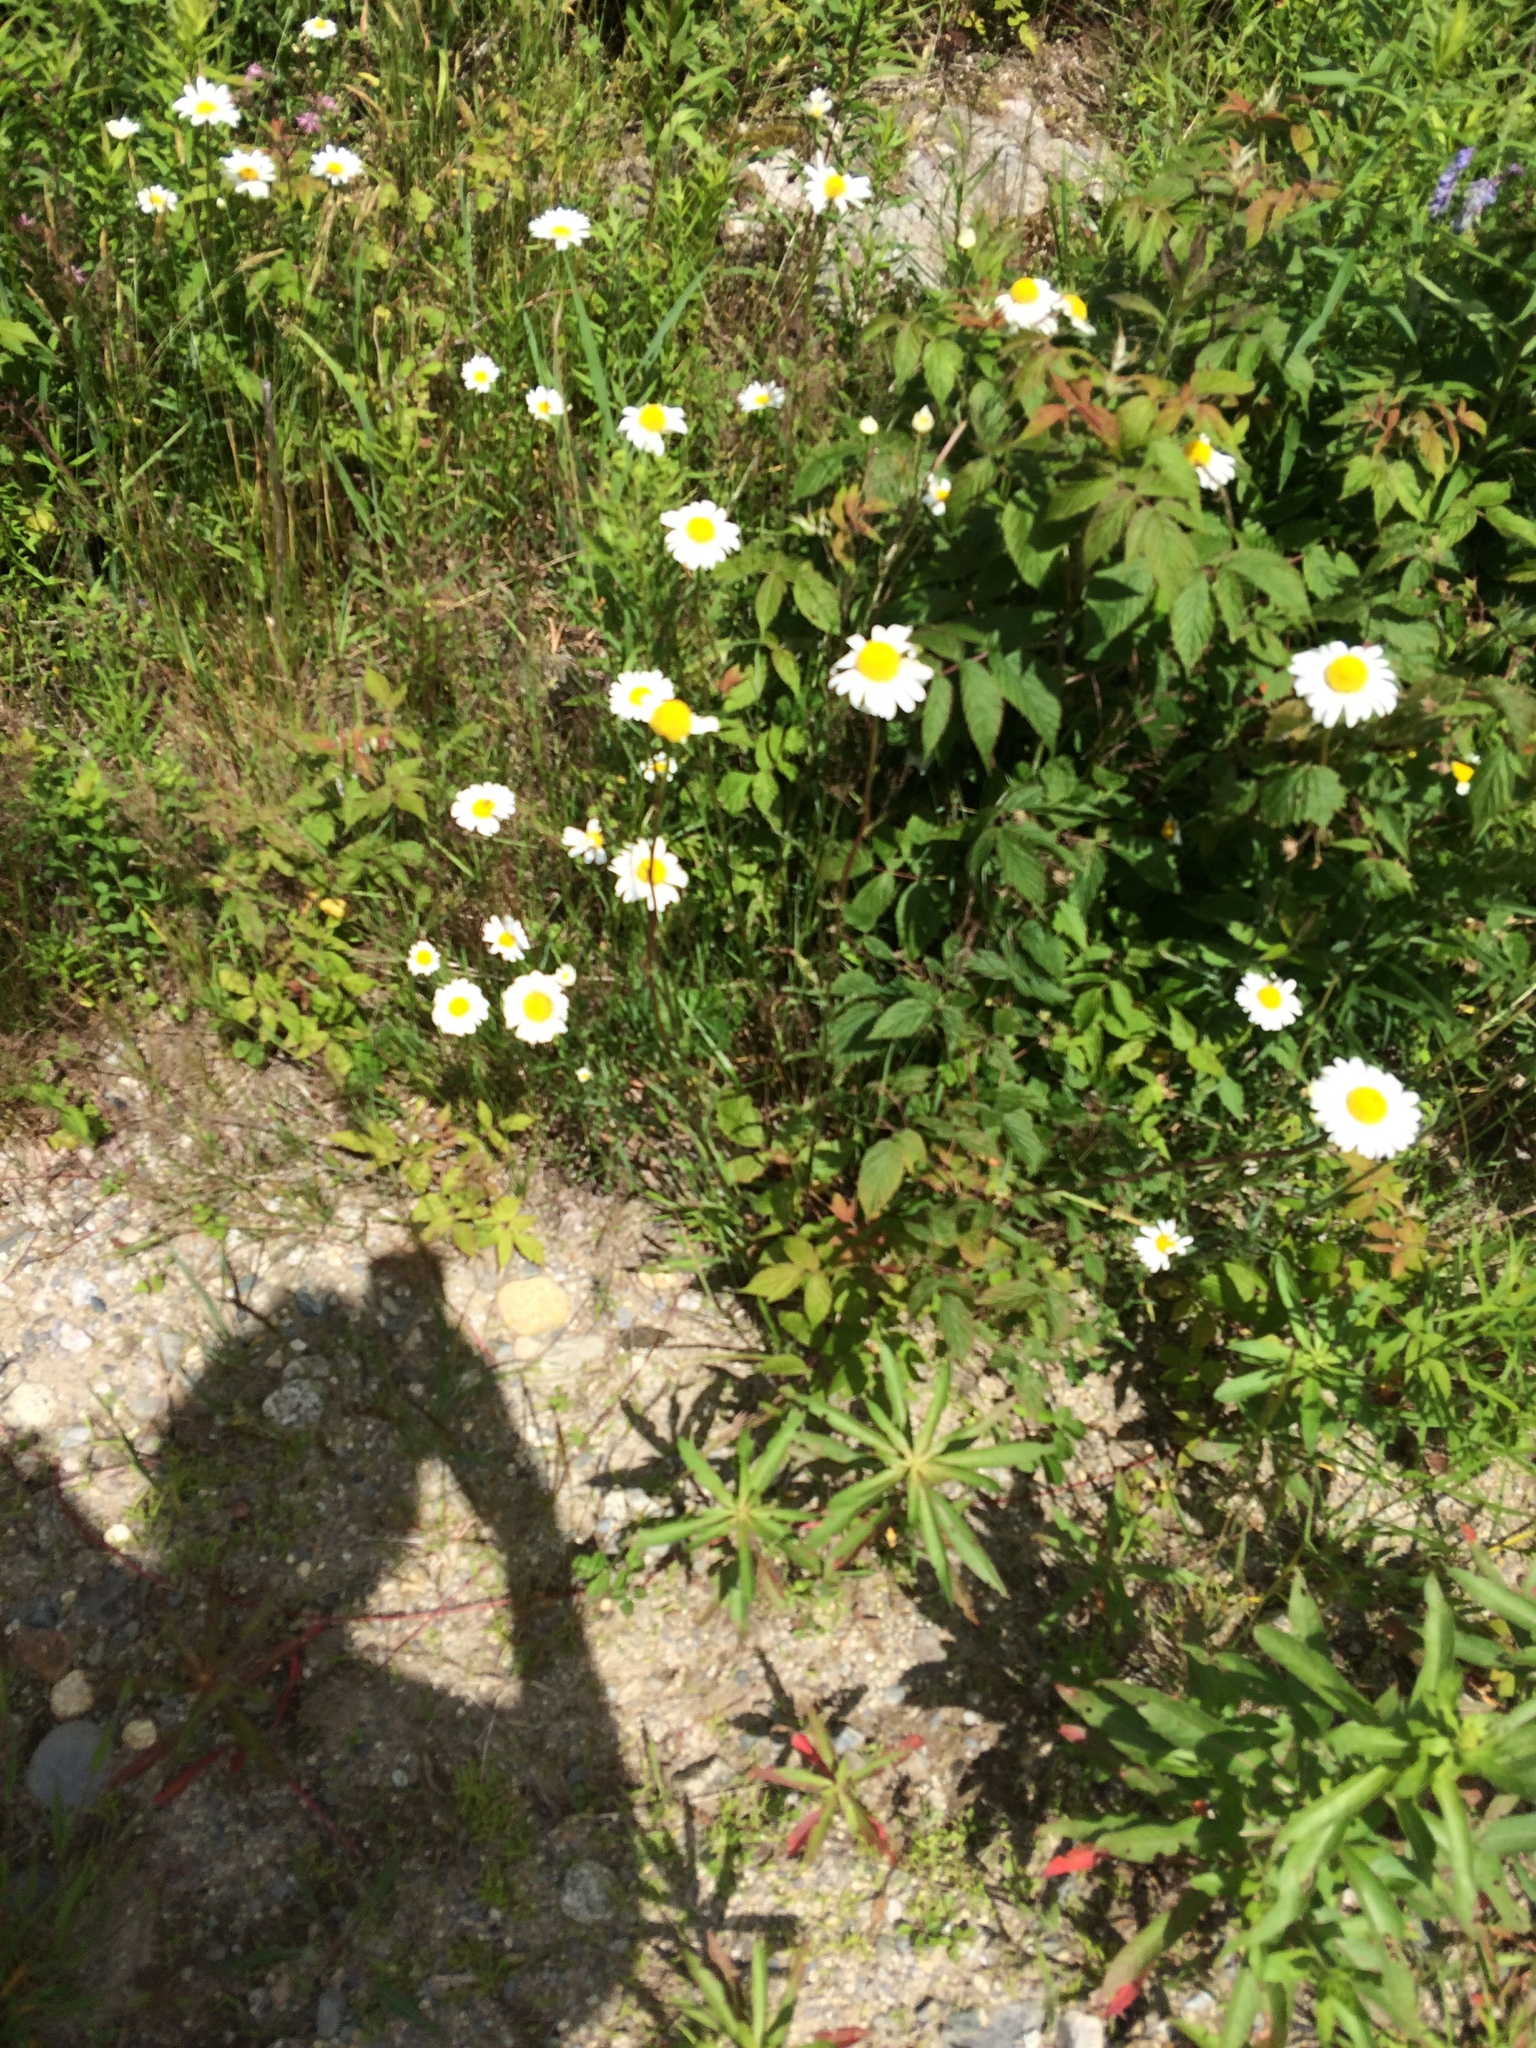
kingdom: Plantae
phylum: Tracheophyta
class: Magnoliopsida
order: Asterales
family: Asteraceae
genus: Leucanthemum
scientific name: Leucanthemum vulgare
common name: Oxeye daisy
